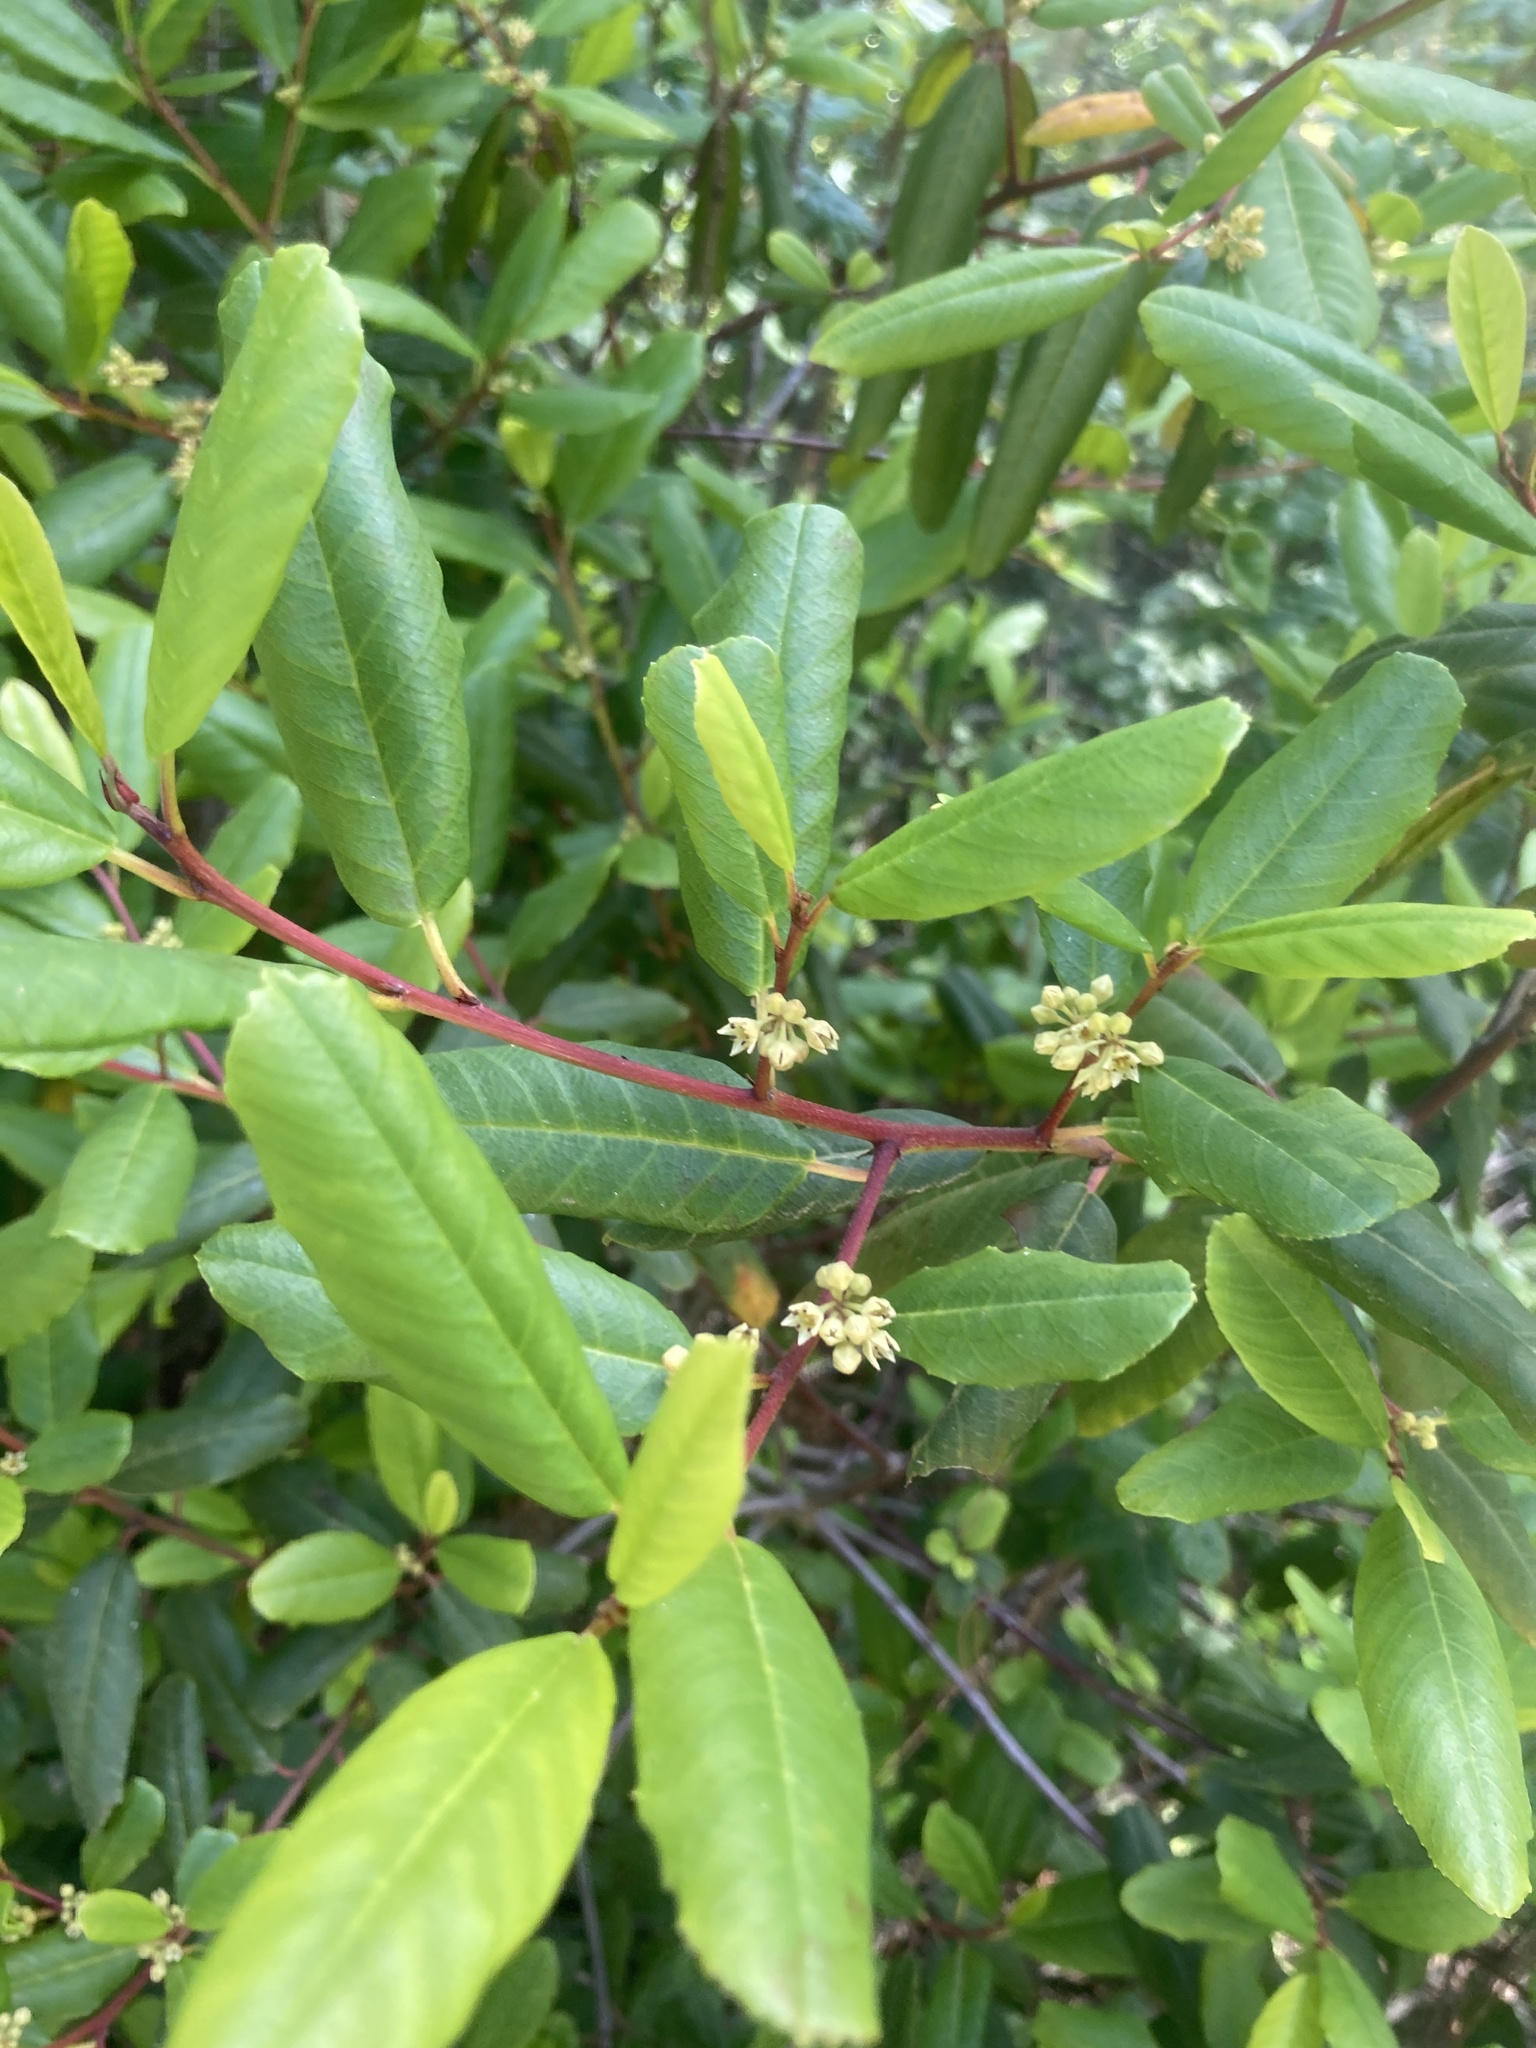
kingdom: Plantae
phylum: Tracheophyta
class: Magnoliopsida
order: Rosales
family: Rhamnaceae
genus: Frangula
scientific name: Frangula californica
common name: California buckthorn
